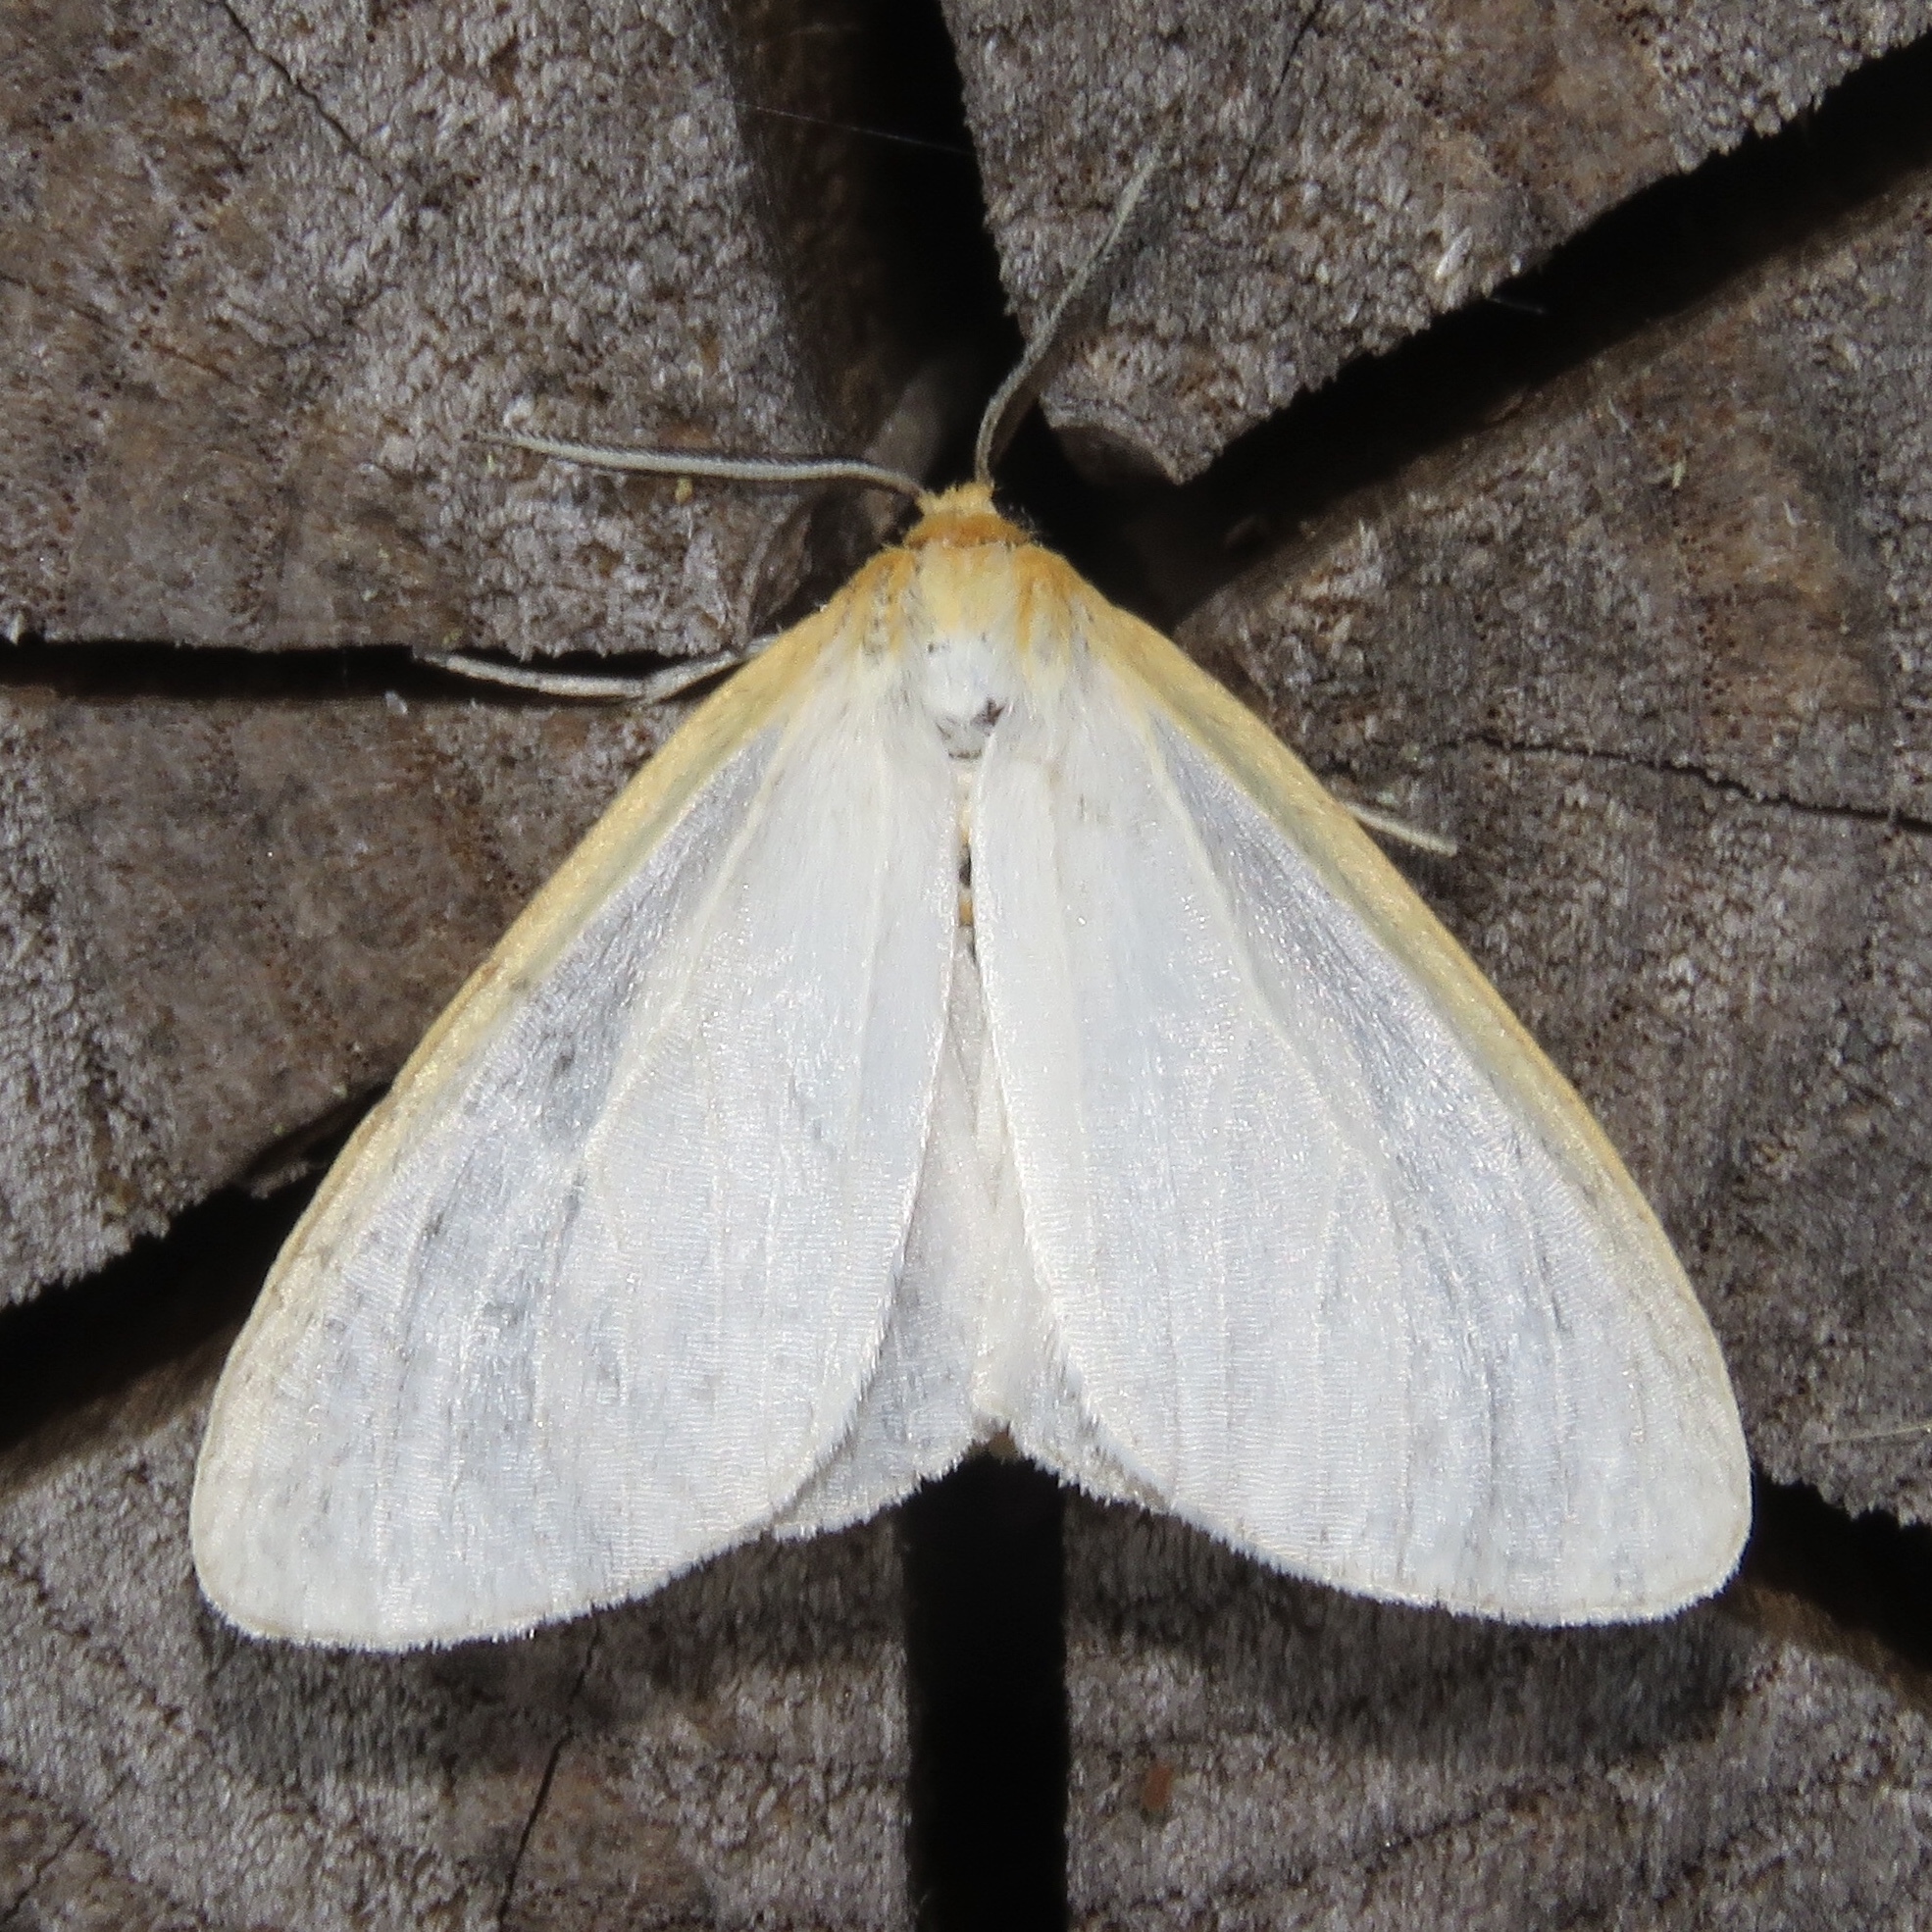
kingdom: Animalia
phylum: Arthropoda
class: Insecta
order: Lepidoptera
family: Erebidae
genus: Cycnia
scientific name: Cycnia tenera
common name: Delicate cycnia moth
